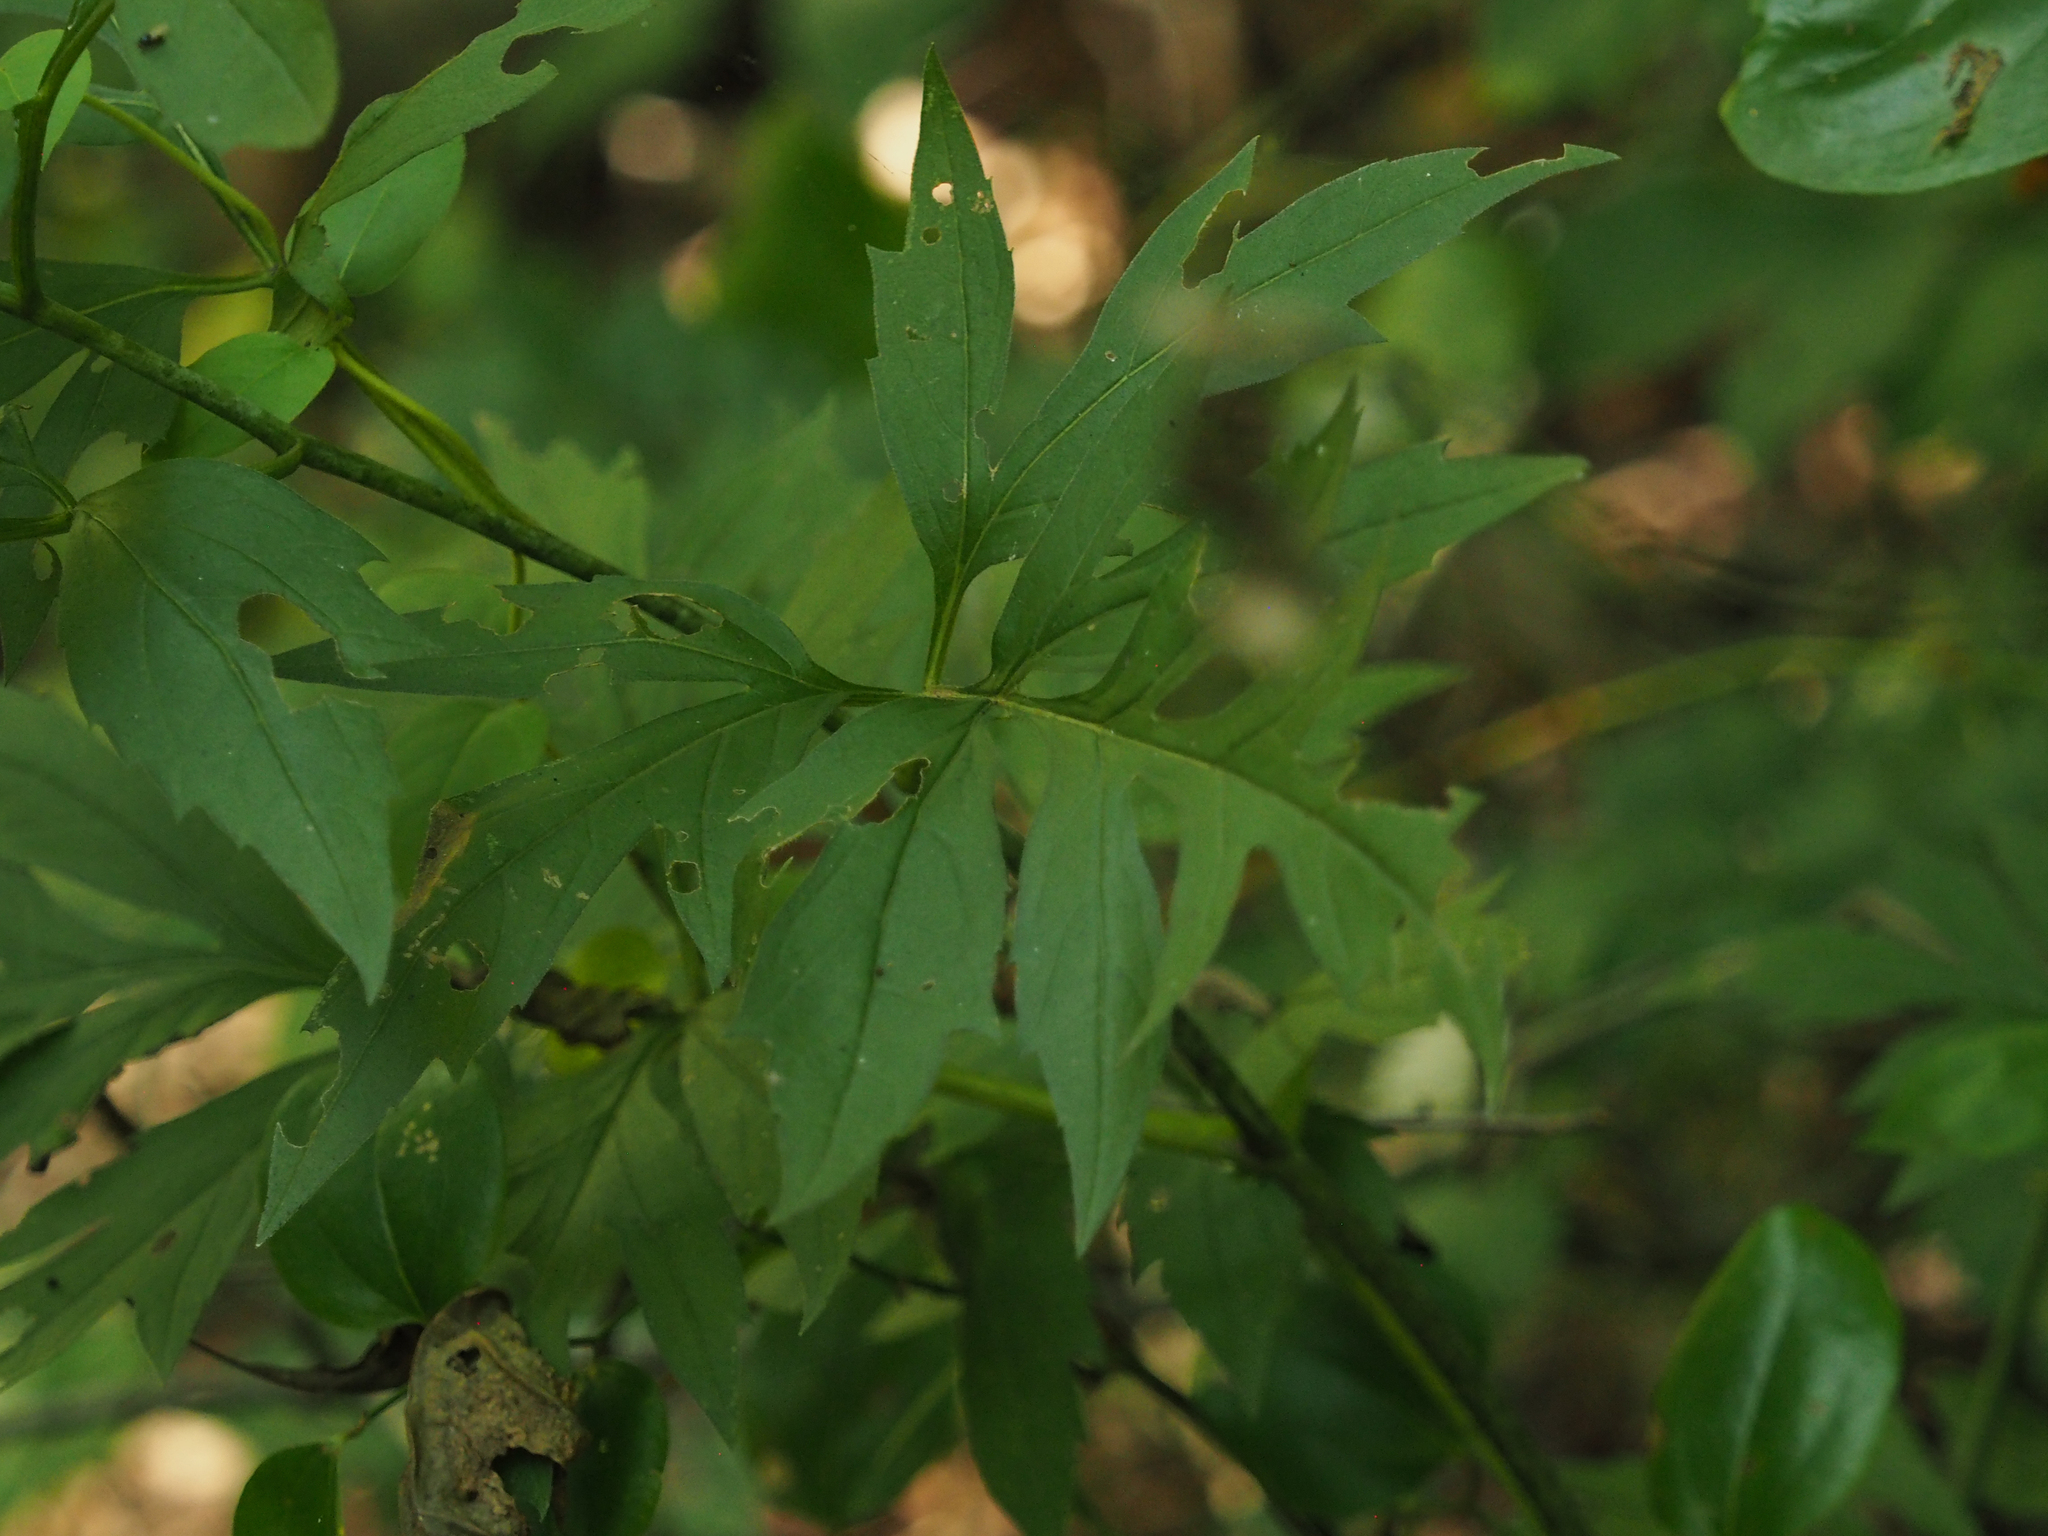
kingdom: Plantae
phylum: Tracheophyta
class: Magnoliopsida
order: Asterales
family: Asteraceae
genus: Rudbeckia
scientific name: Rudbeckia laciniata
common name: Coneflower
